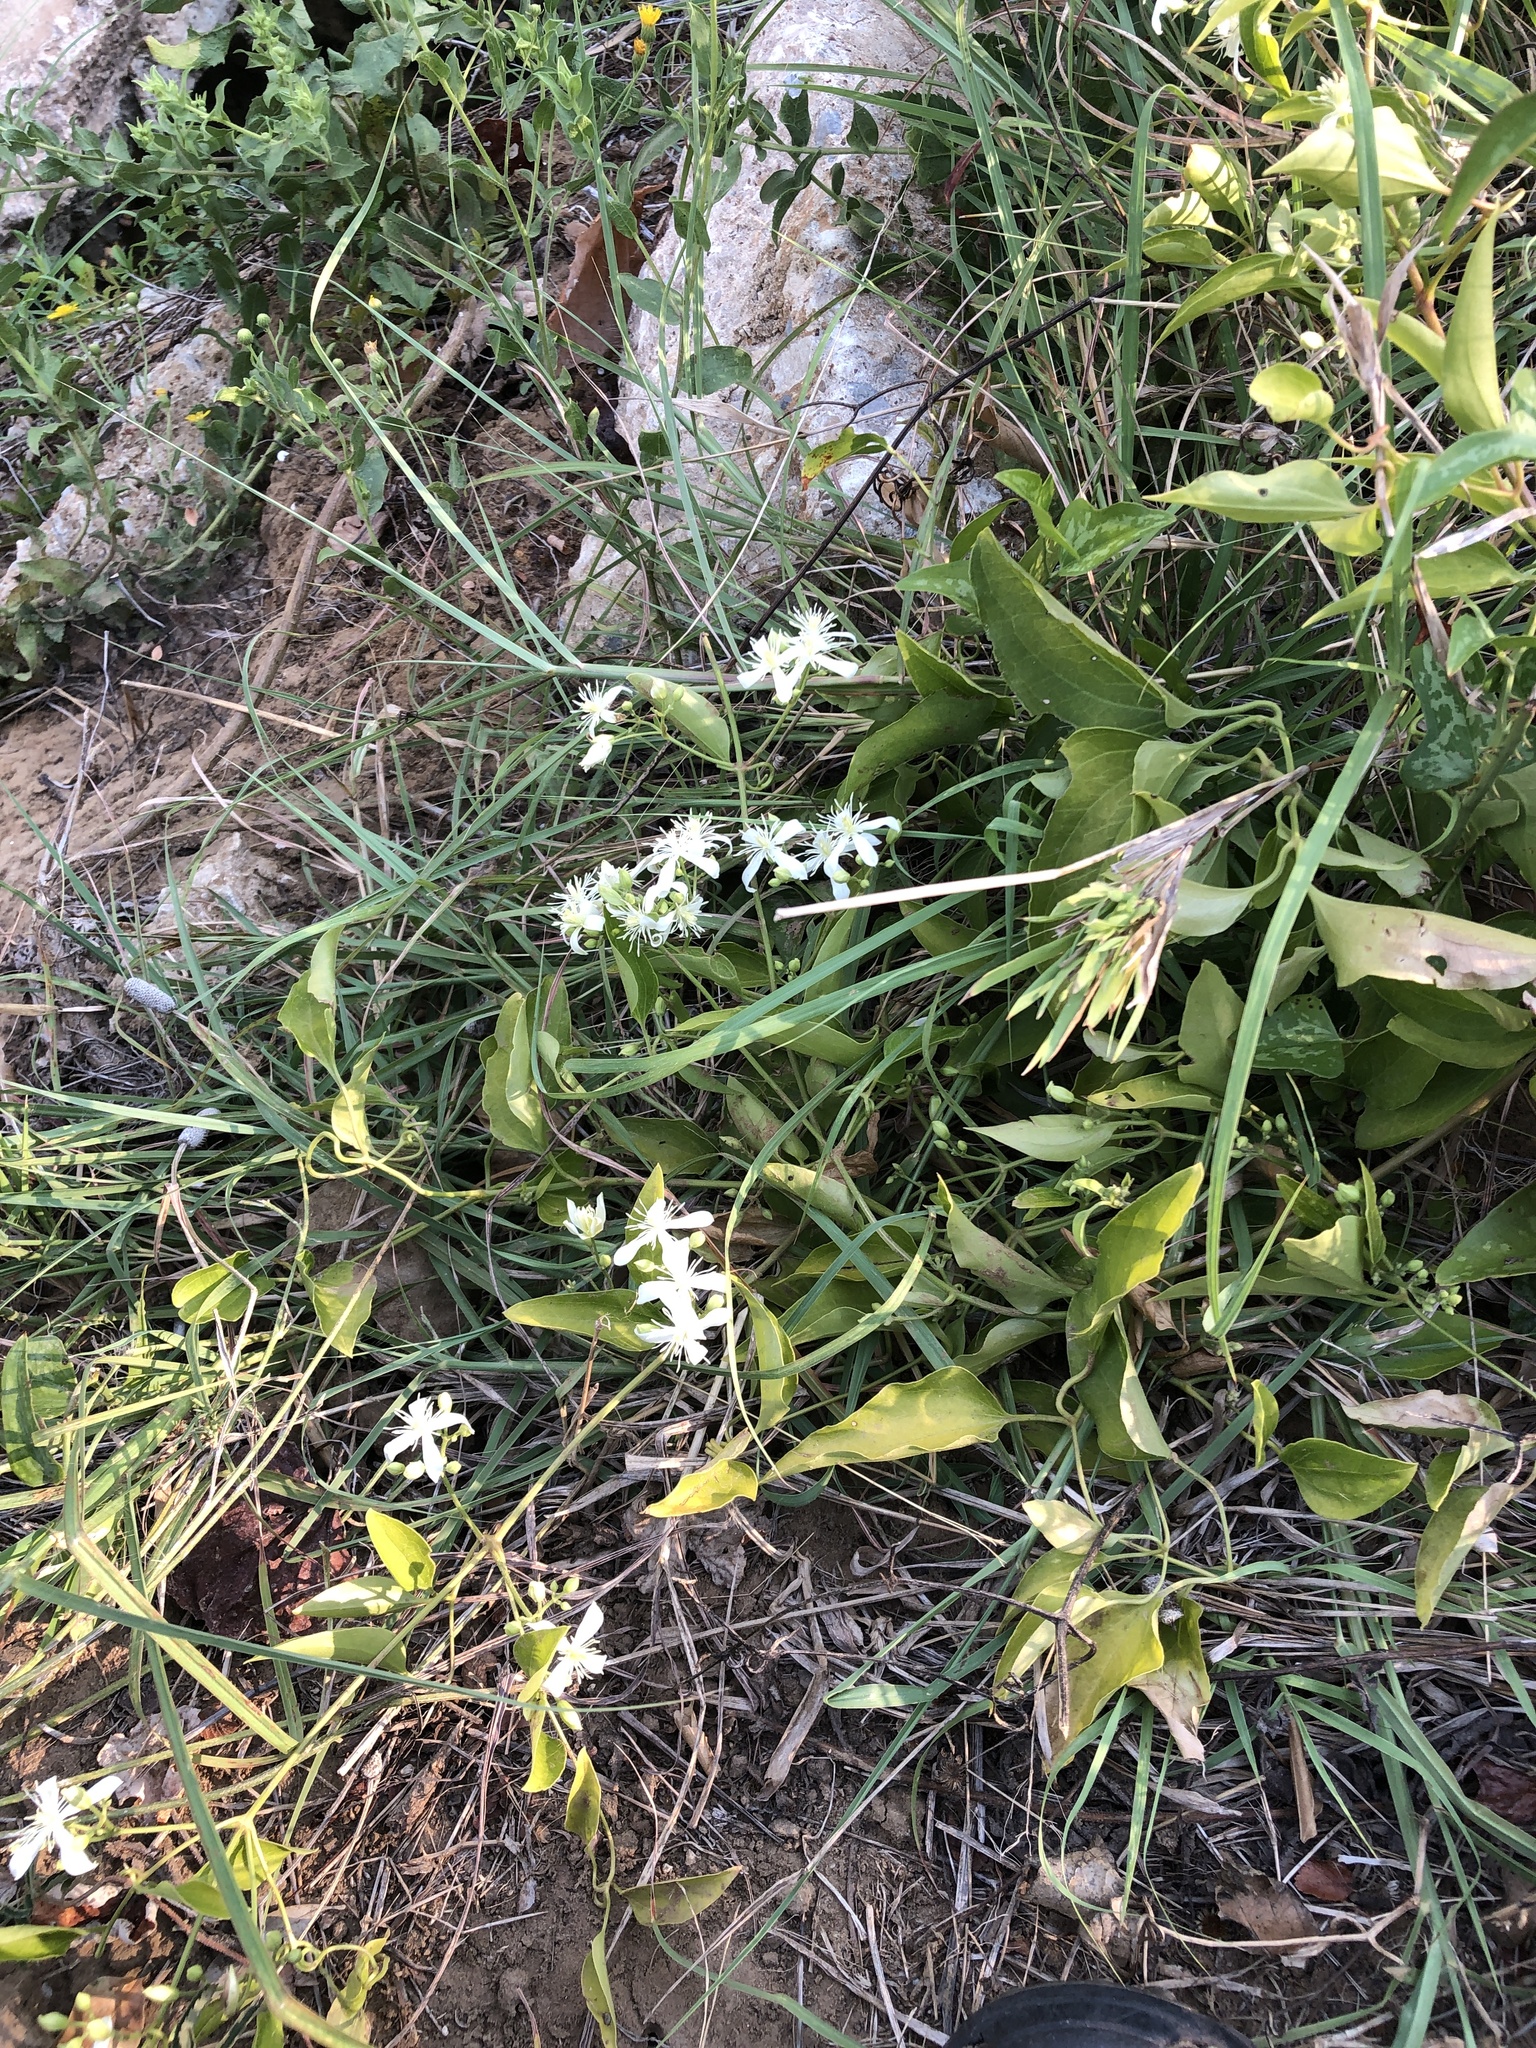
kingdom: Plantae
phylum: Tracheophyta
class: Magnoliopsida
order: Ranunculales
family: Ranunculaceae
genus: Clematis
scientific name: Clematis terniflora
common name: Sweet autumn clematis
